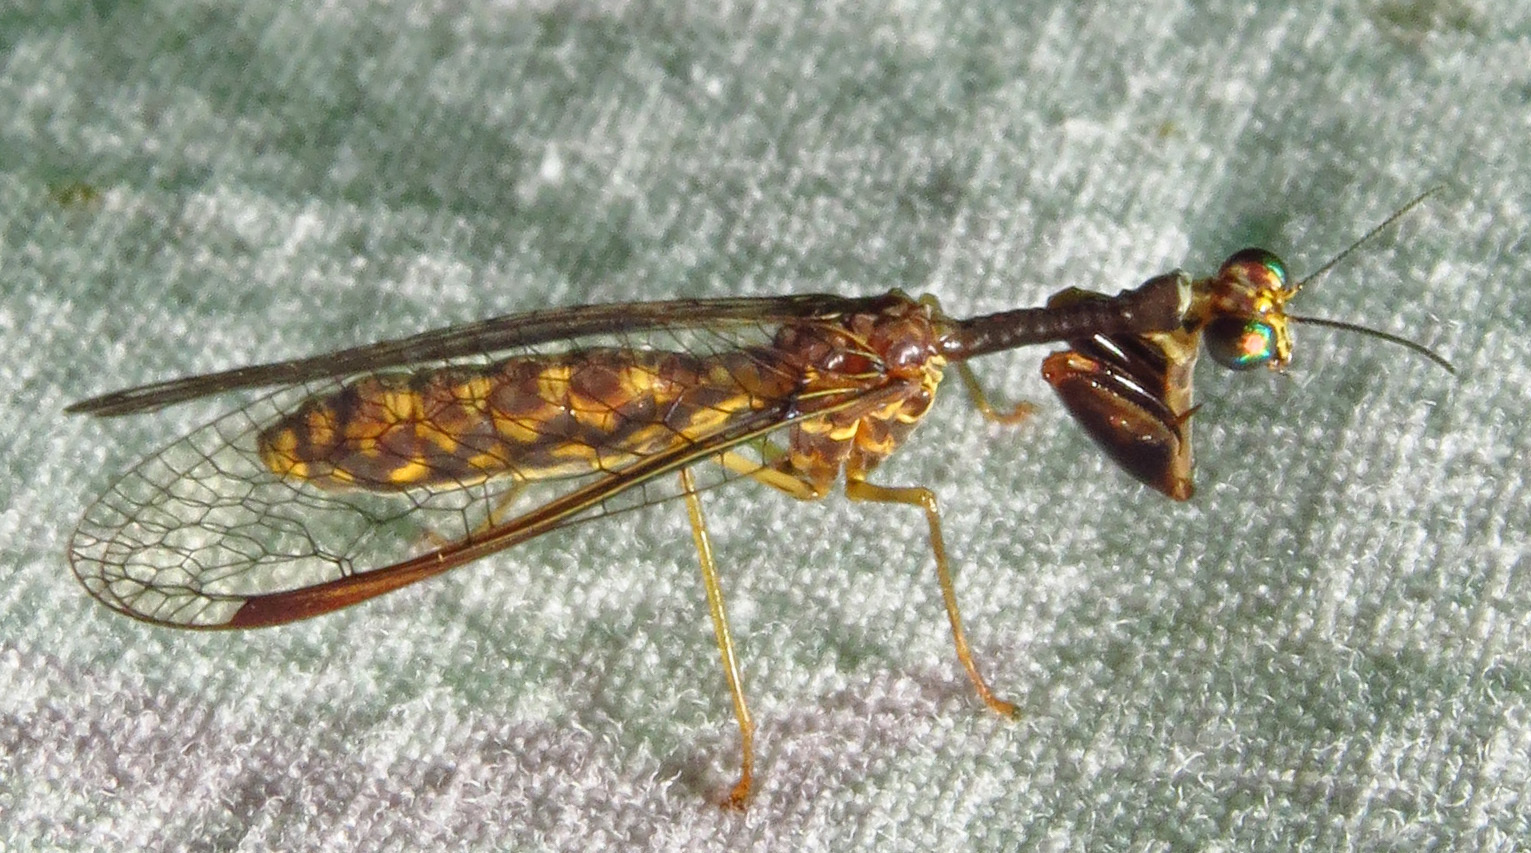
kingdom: Animalia
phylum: Arthropoda
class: Insecta
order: Neuroptera
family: Mantispidae
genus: Dicromantispa
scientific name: Dicromantispa sayi
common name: Say's mantidfly
